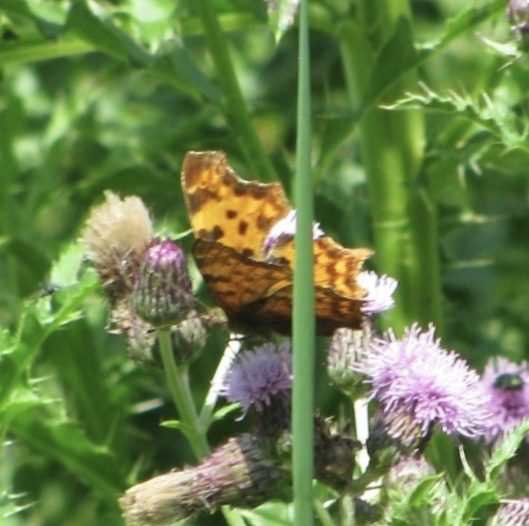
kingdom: Animalia
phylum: Arthropoda
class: Insecta
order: Lepidoptera
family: Nymphalidae
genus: Polygonia
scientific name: Polygonia c-album
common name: Comma
